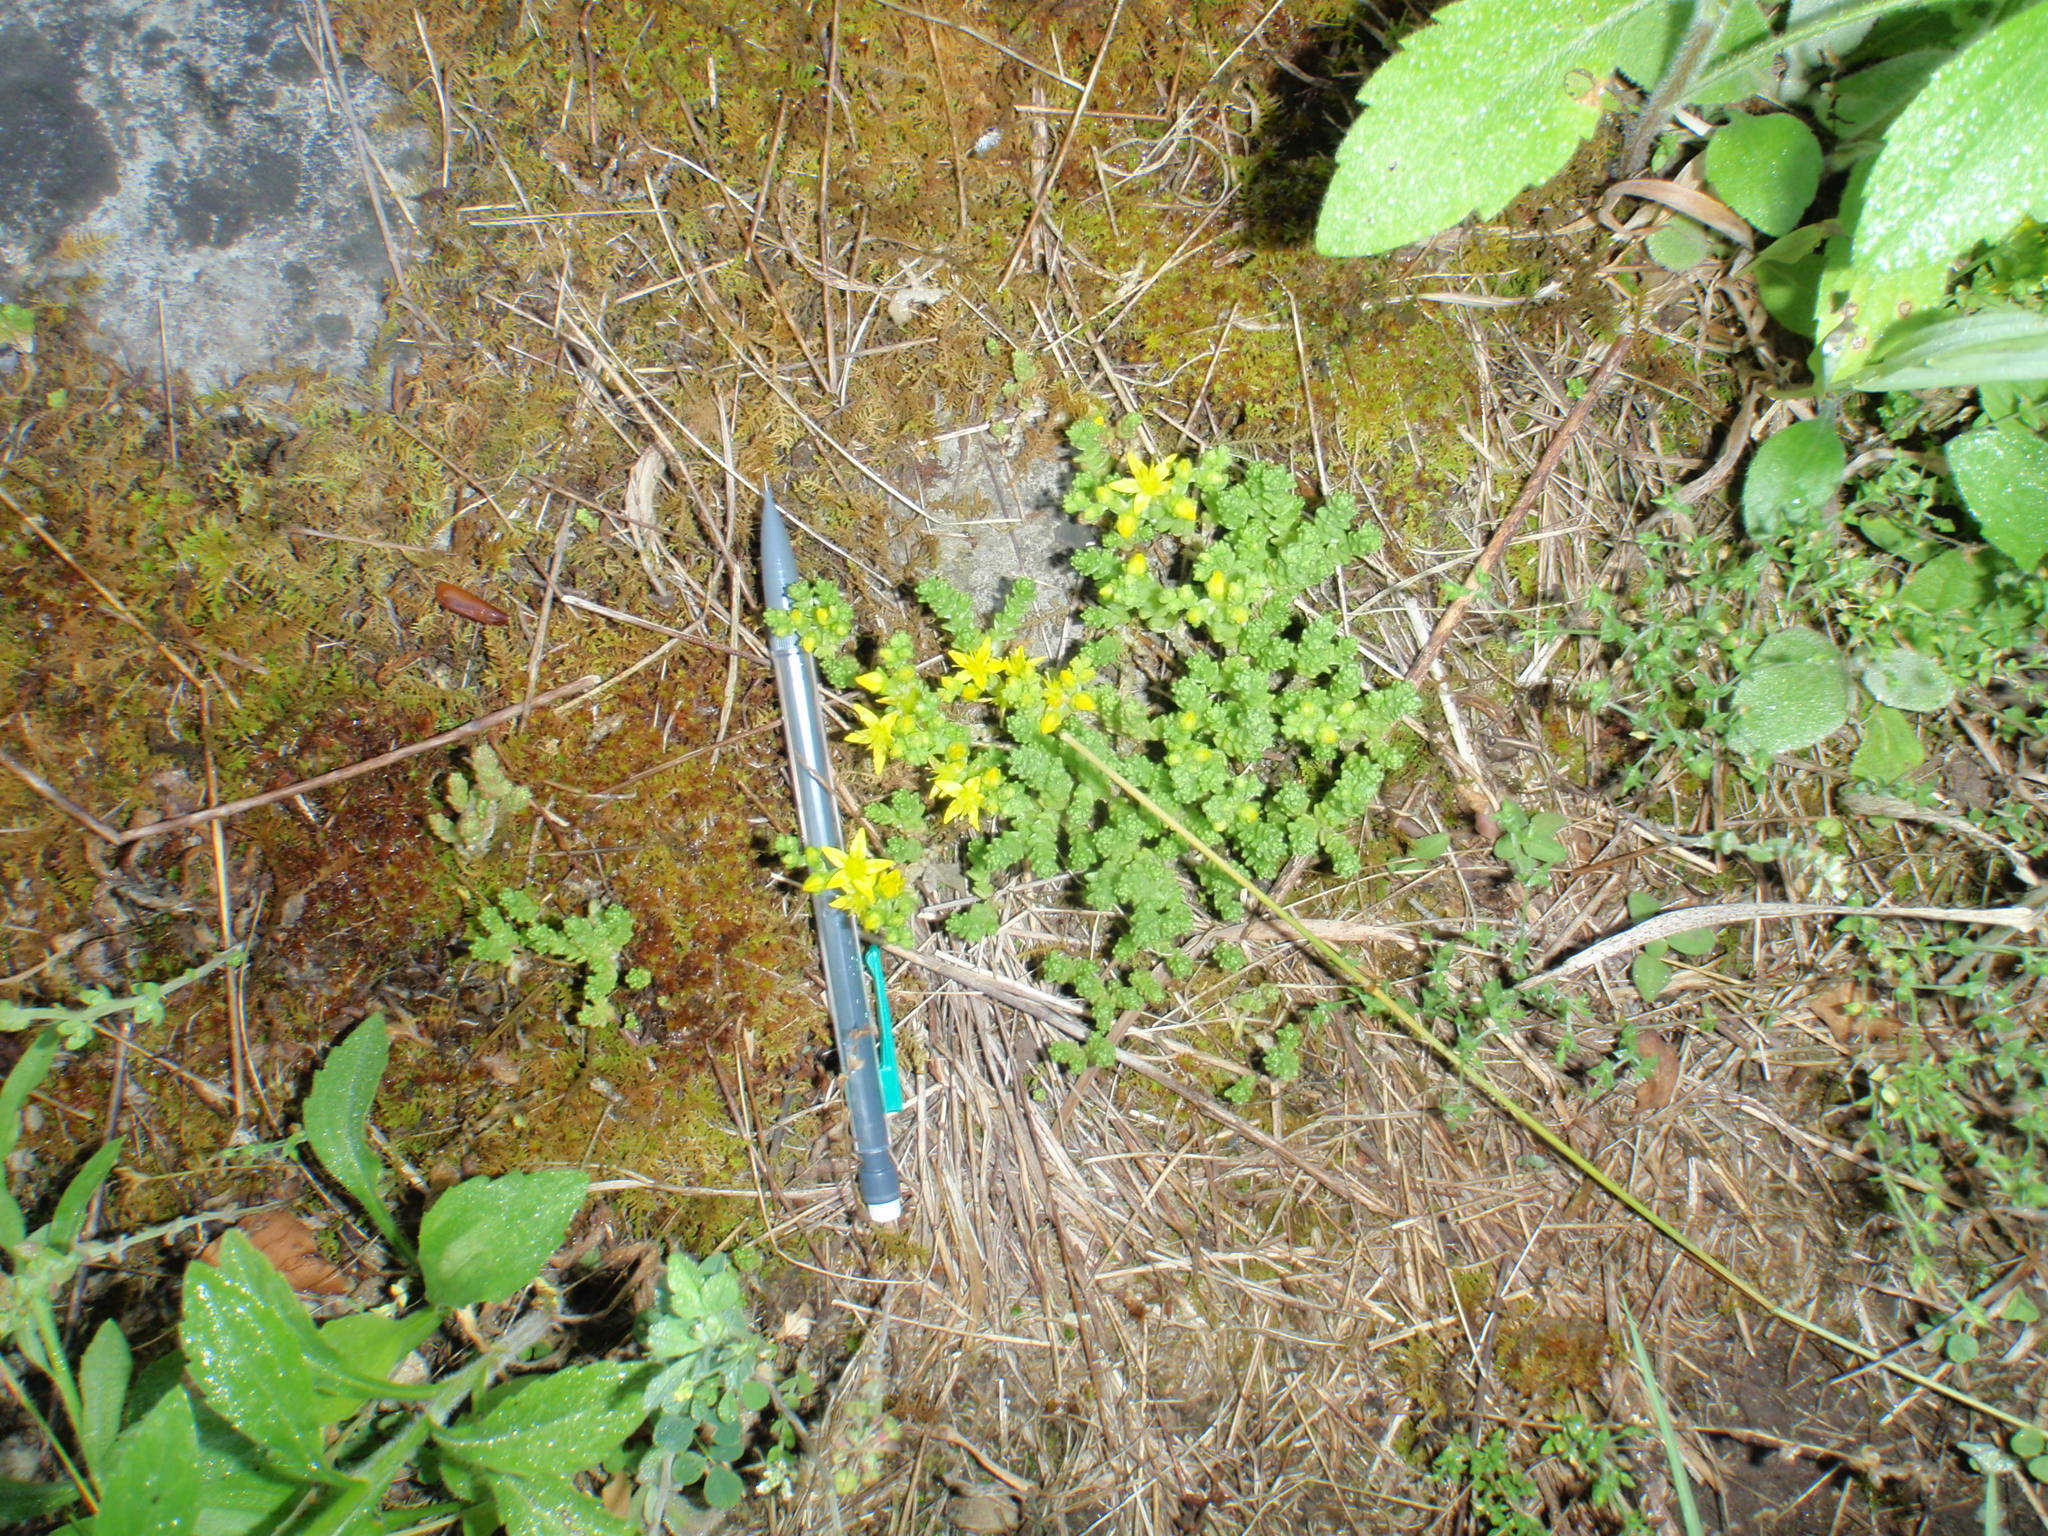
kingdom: Plantae
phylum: Tracheophyta
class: Magnoliopsida
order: Saxifragales
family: Crassulaceae
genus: Sedum
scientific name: Sedum acre
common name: Biting stonecrop
